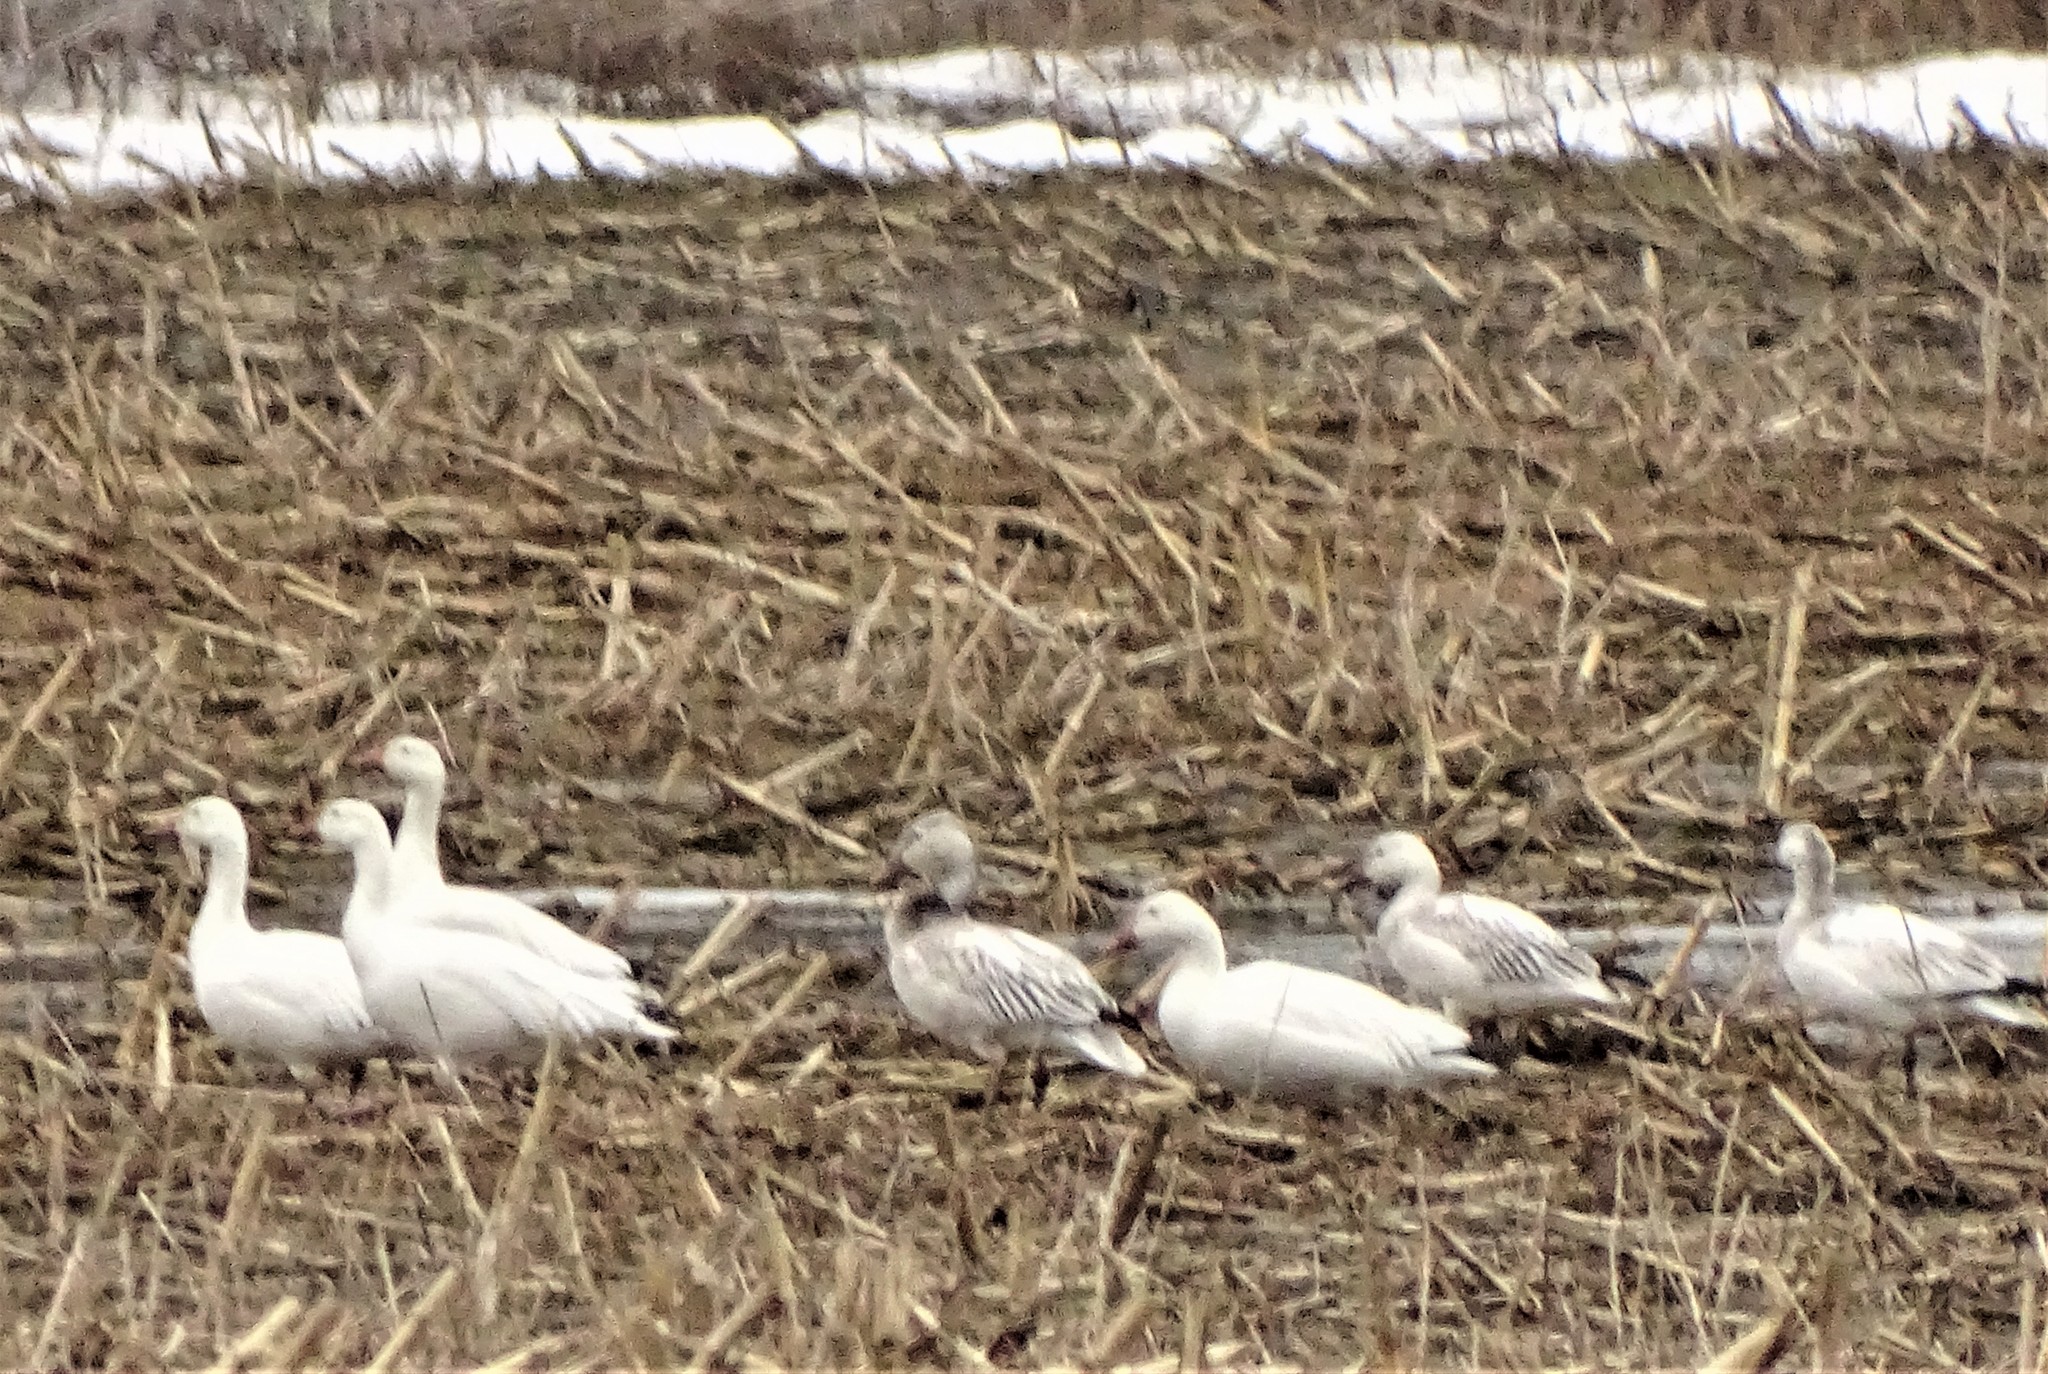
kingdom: Animalia
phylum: Chordata
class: Aves
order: Anseriformes
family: Anatidae
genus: Anser
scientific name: Anser caerulescens
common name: Snow goose
